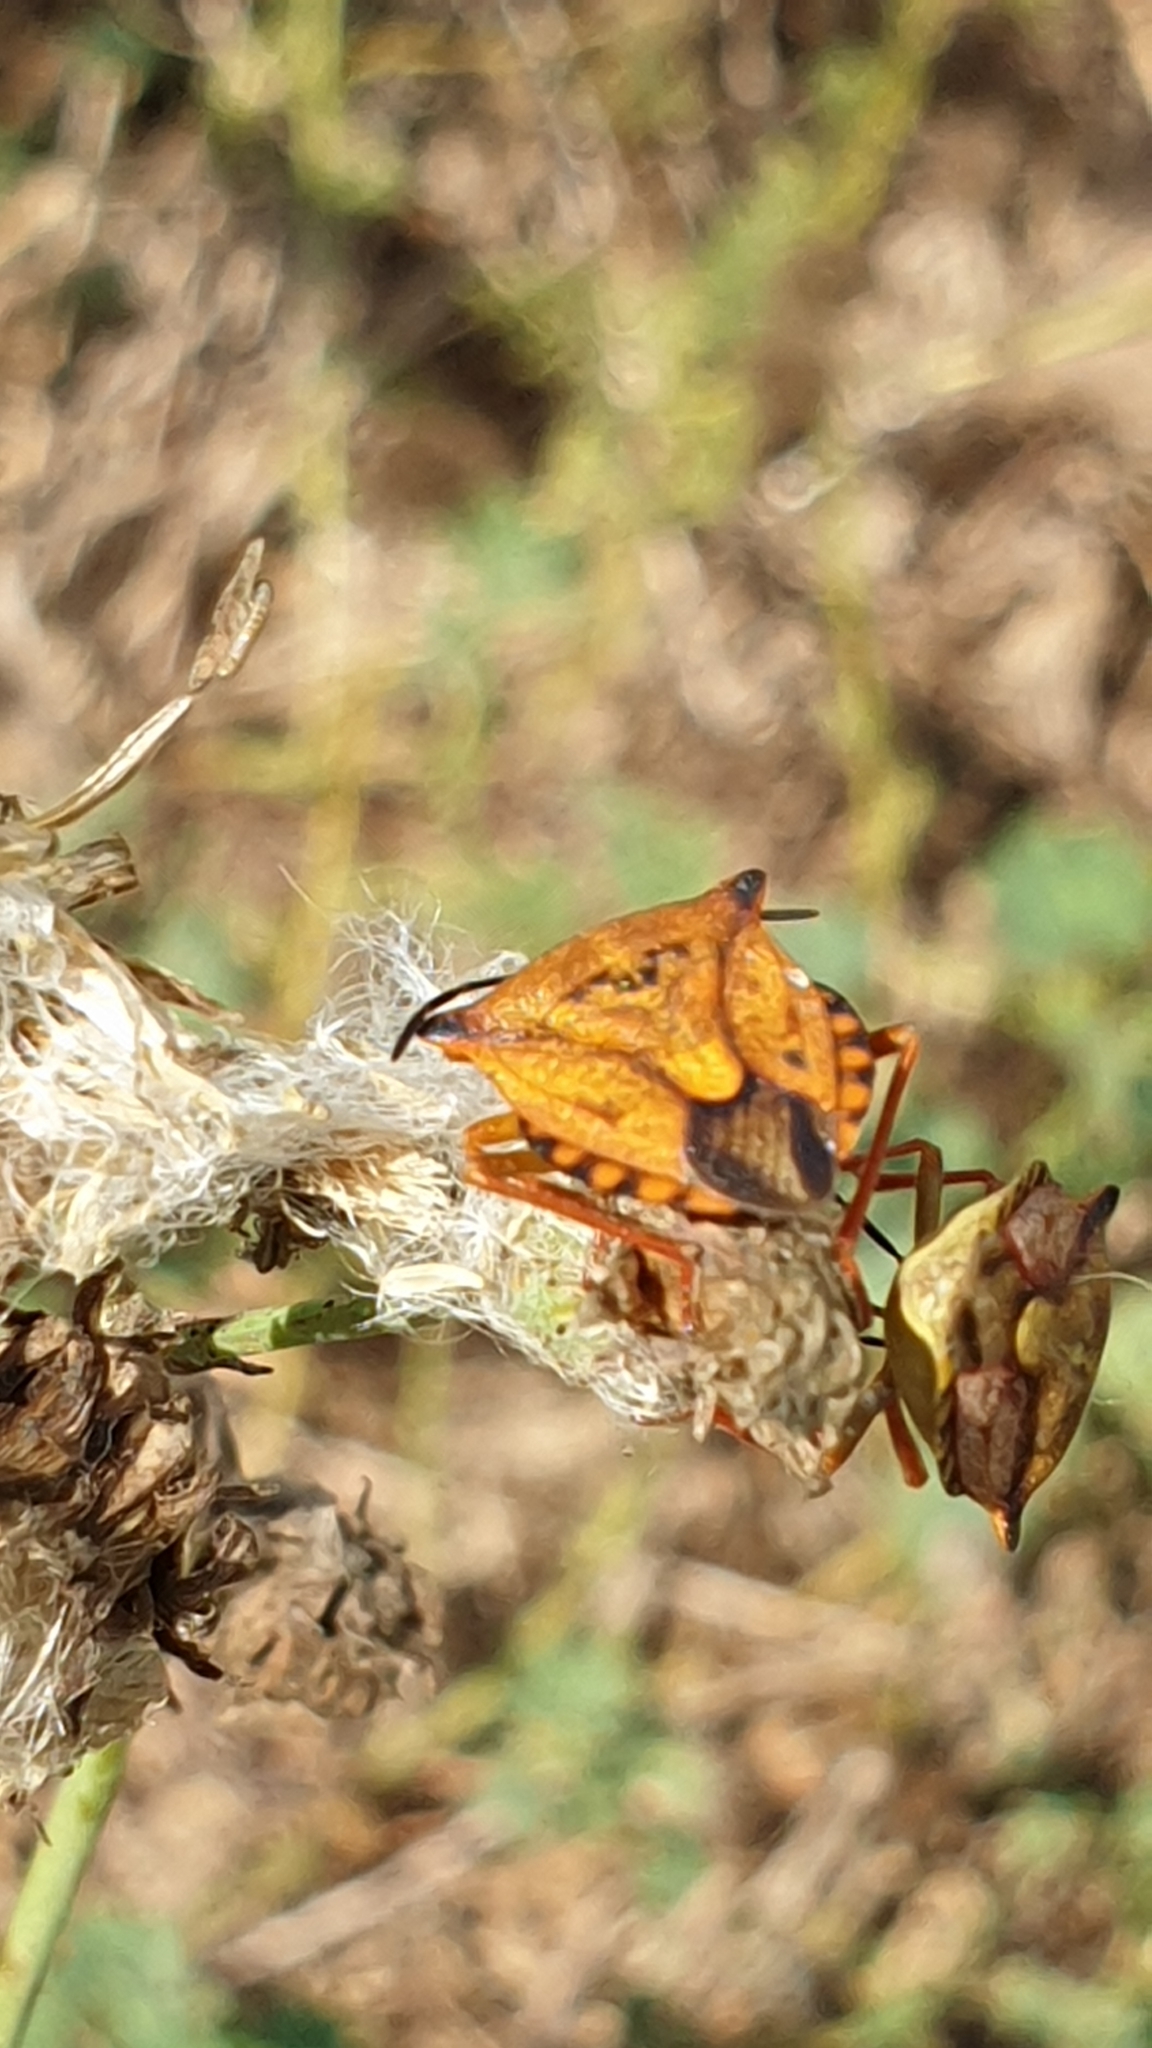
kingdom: Animalia
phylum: Arthropoda
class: Insecta
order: Hemiptera
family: Pentatomidae
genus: Carpocoris
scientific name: Carpocoris mediterraneus
